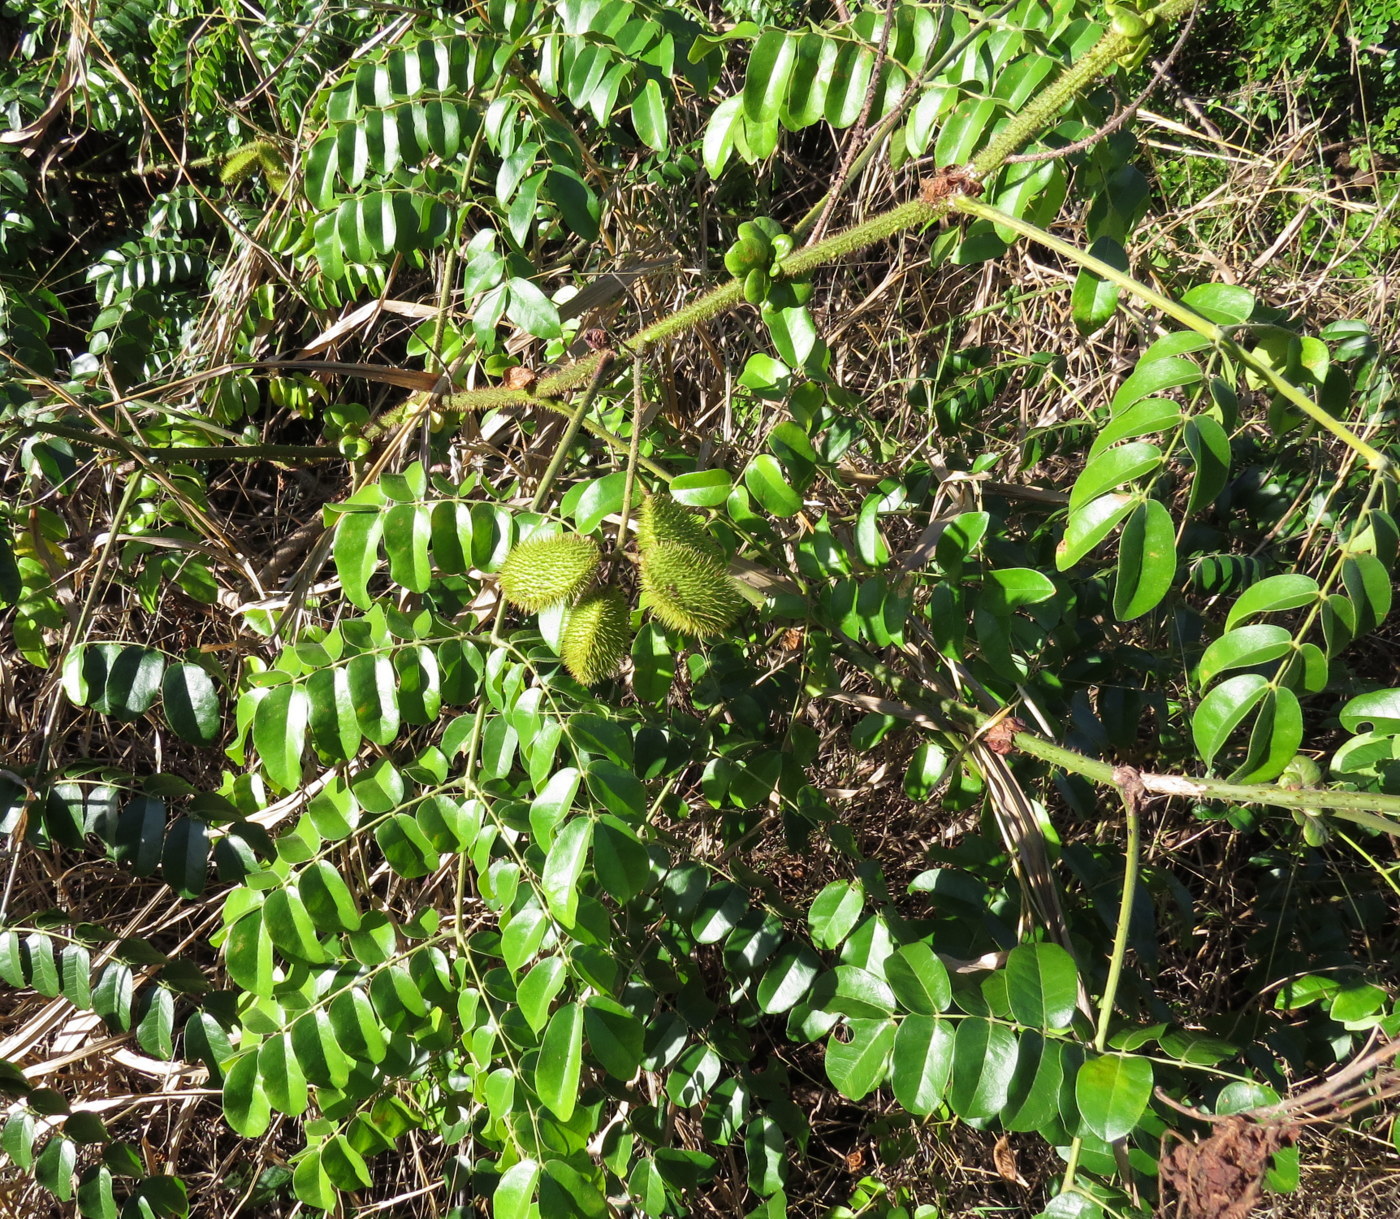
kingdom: Plantae
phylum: Tracheophyta
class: Magnoliopsida
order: Fabales
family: Fabaceae
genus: Guilandina
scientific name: Guilandina bonduc
